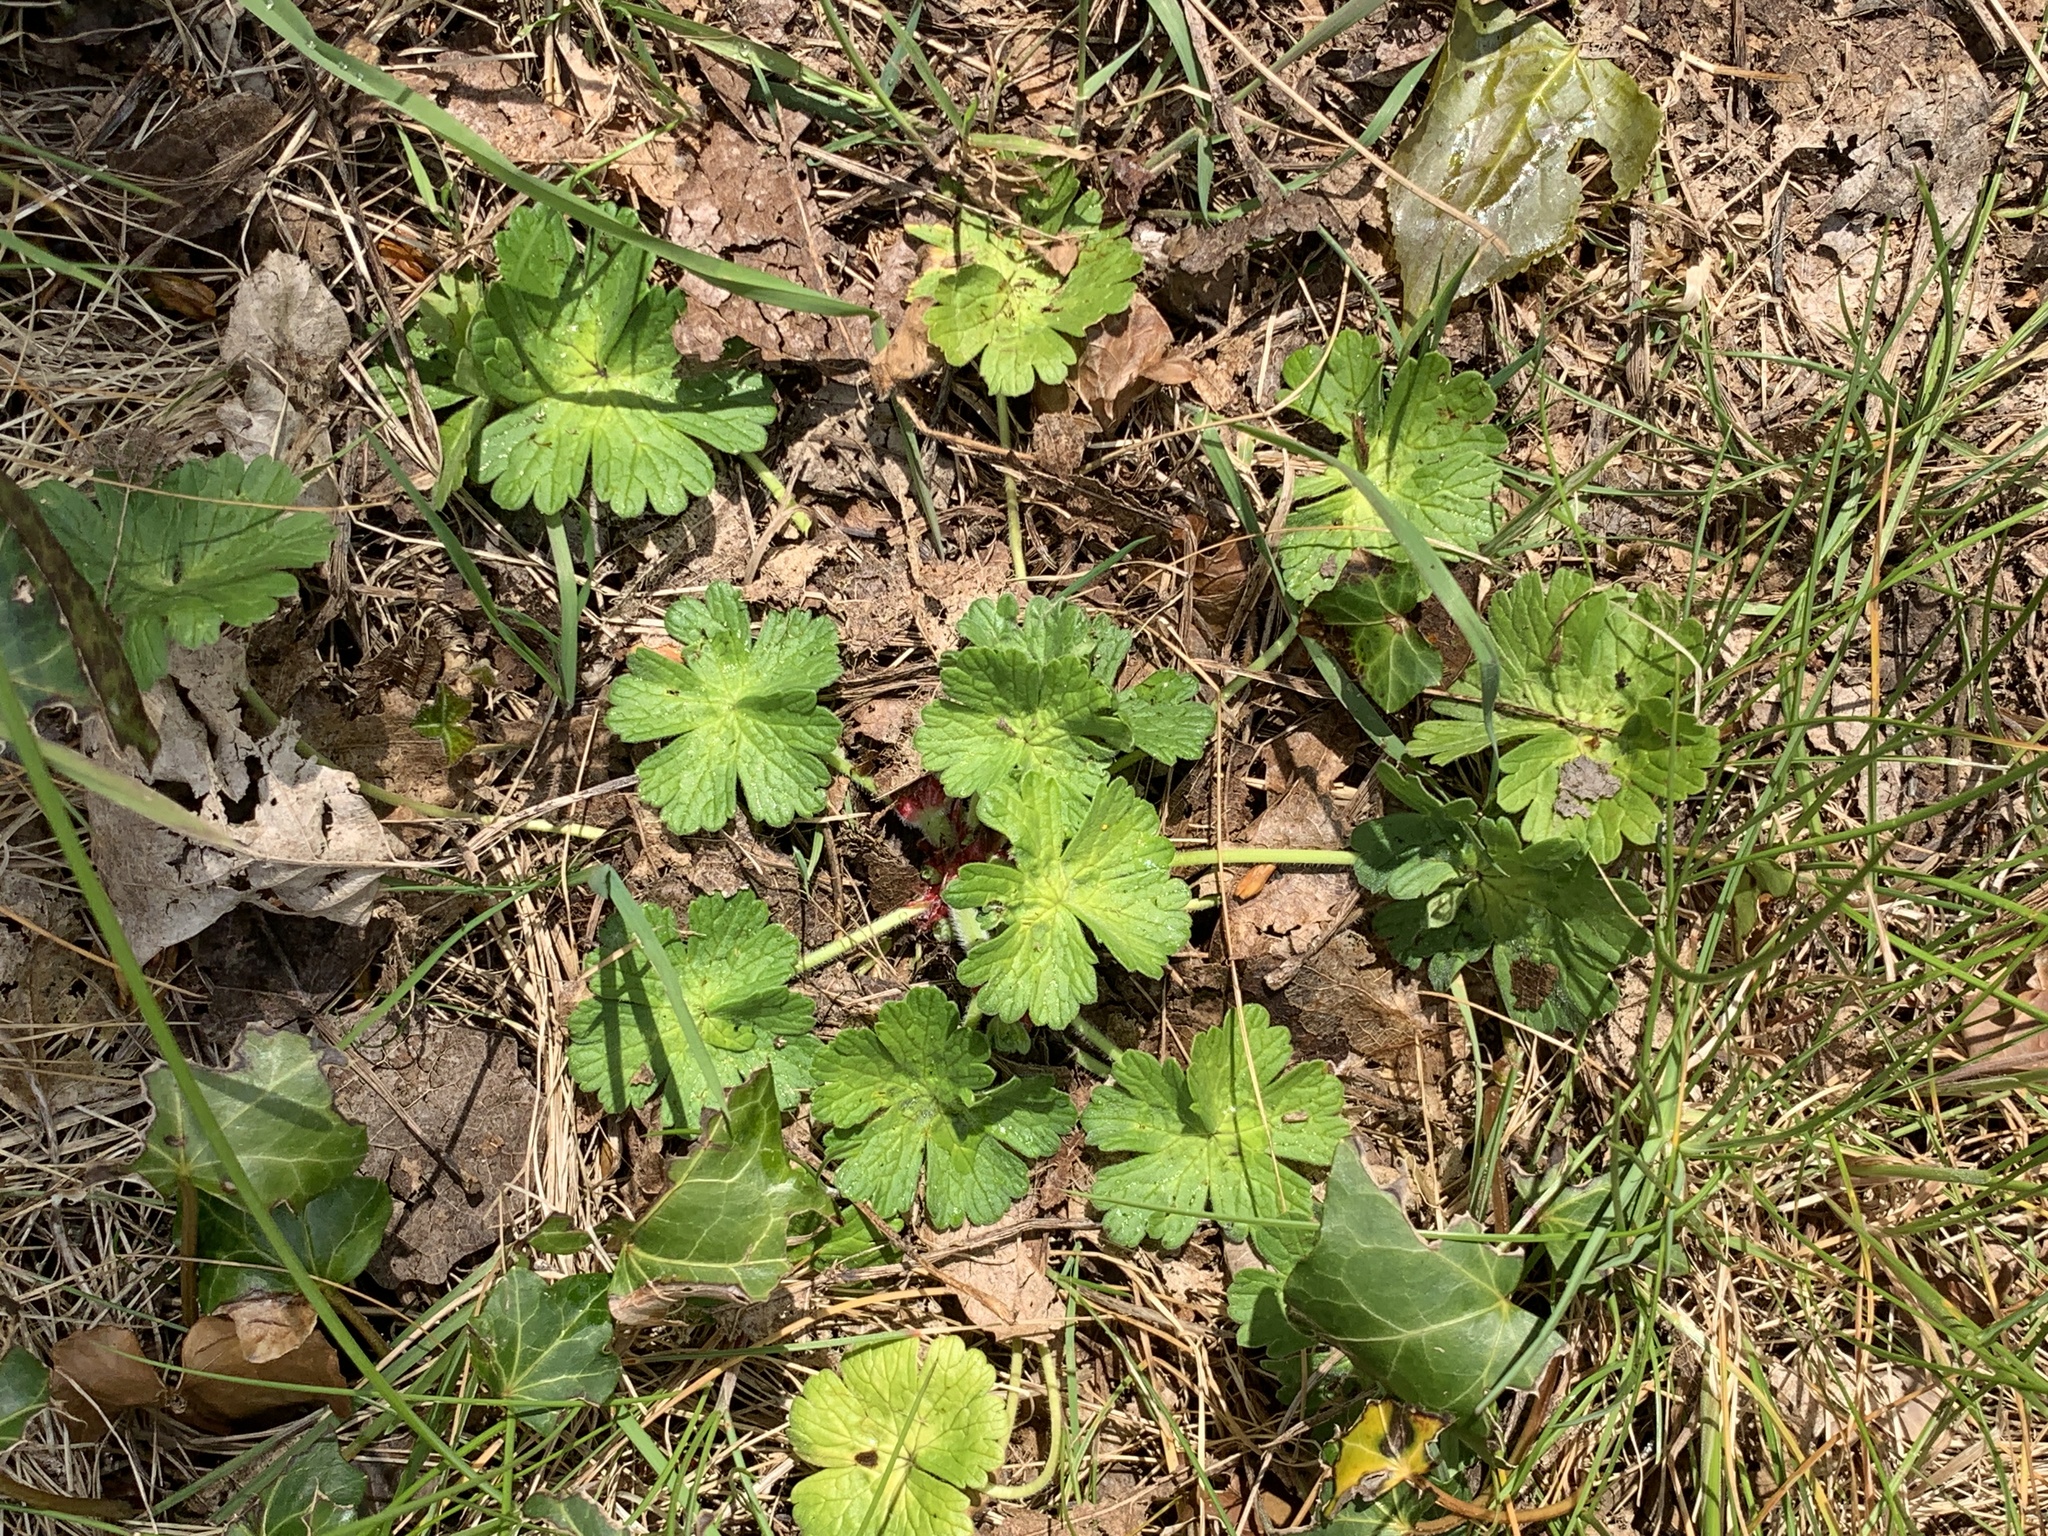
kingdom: Plantae
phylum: Tracheophyta
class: Magnoliopsida
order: Geraniales
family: Geraniaceae
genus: Geranium
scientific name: Geranium pyrenaicum
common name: Hedgerow crane's-bill
